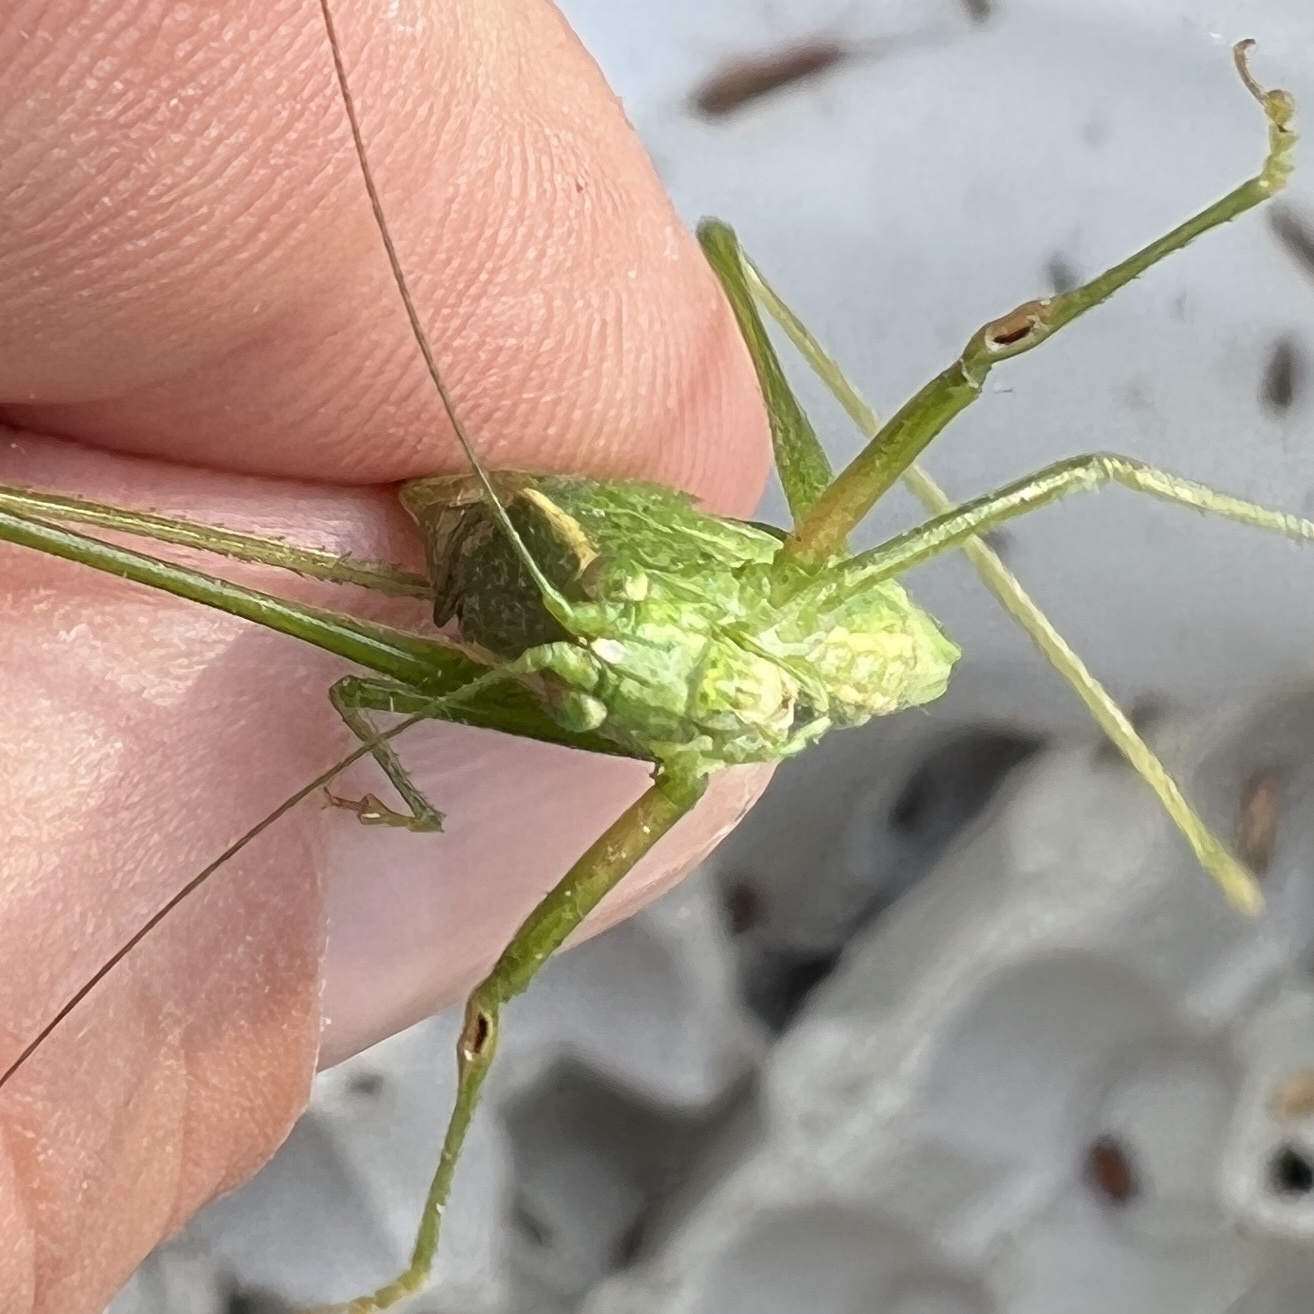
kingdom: Animalia
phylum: Arthropoda
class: Insecta
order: Orthoptera
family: Tettigoniidae
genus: Scudderia
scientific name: Scudderia septentrionalis
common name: Northern bush-katydid
